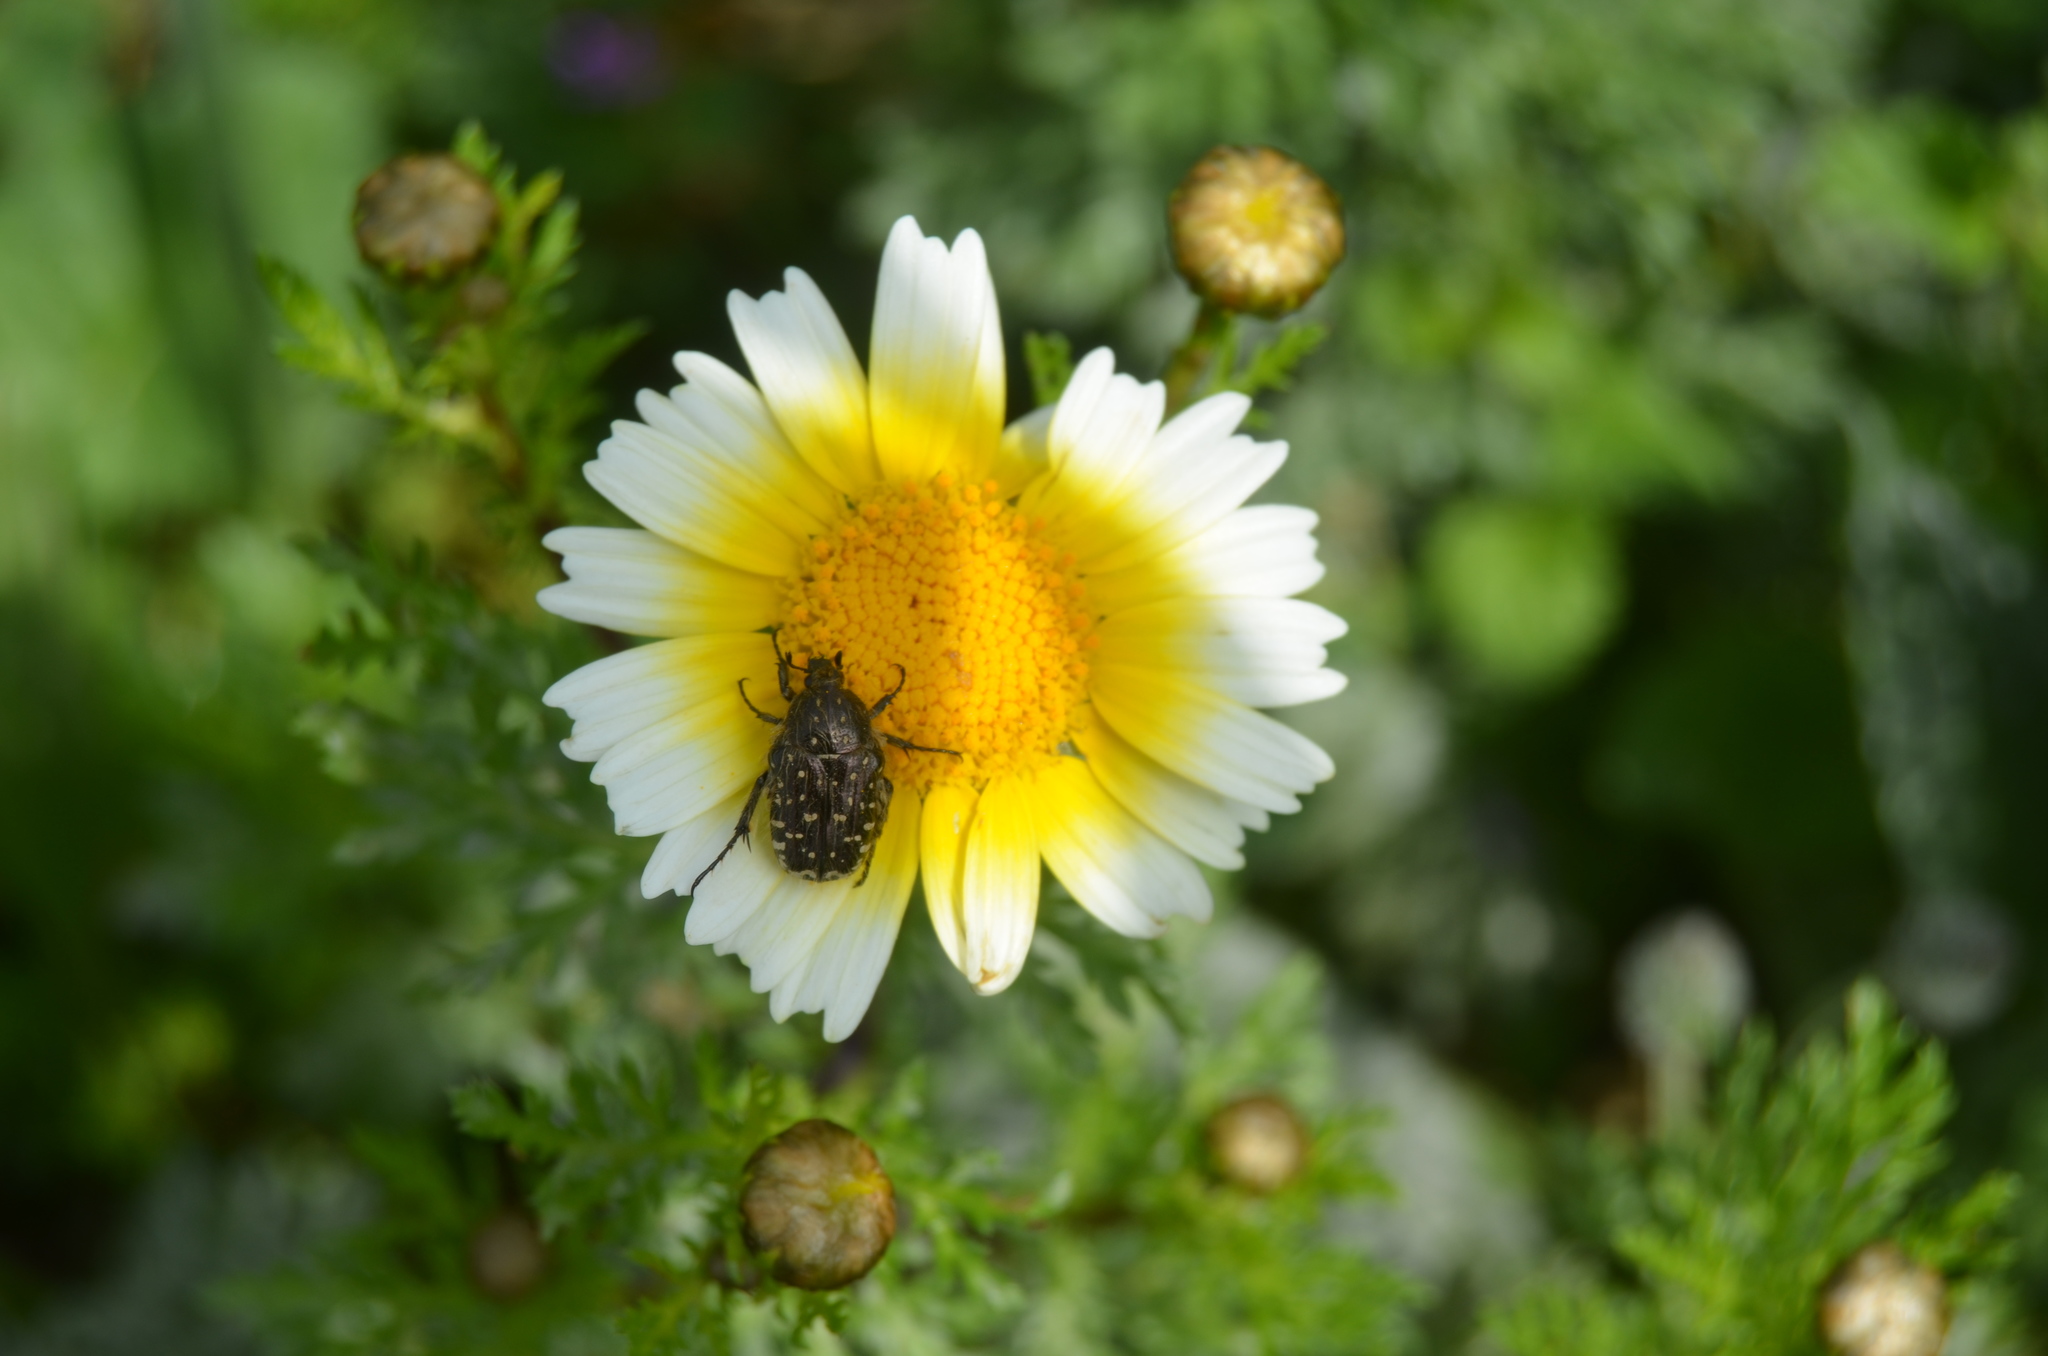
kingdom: Animalia
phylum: Arthropoda
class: Insecta
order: Coleoptera
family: Scarabaeidae
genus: Oxythyrea
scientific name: Oxythyrea funesta
